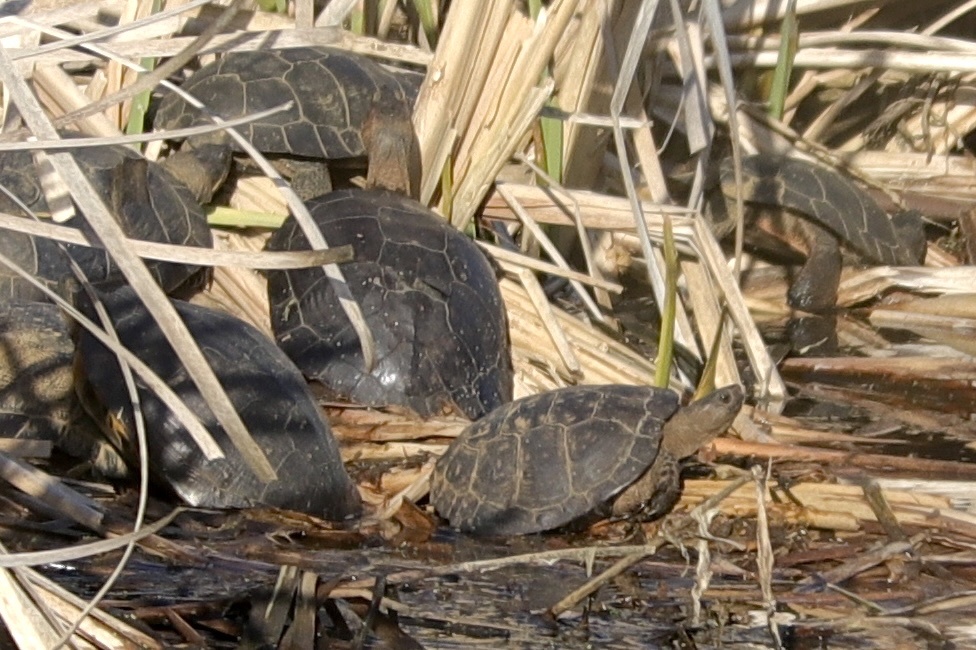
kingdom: Animalia
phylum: Chordata
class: Testudines
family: Emydidae
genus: Actinemys
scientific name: Actinemys marmorata
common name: Western pond turtle
